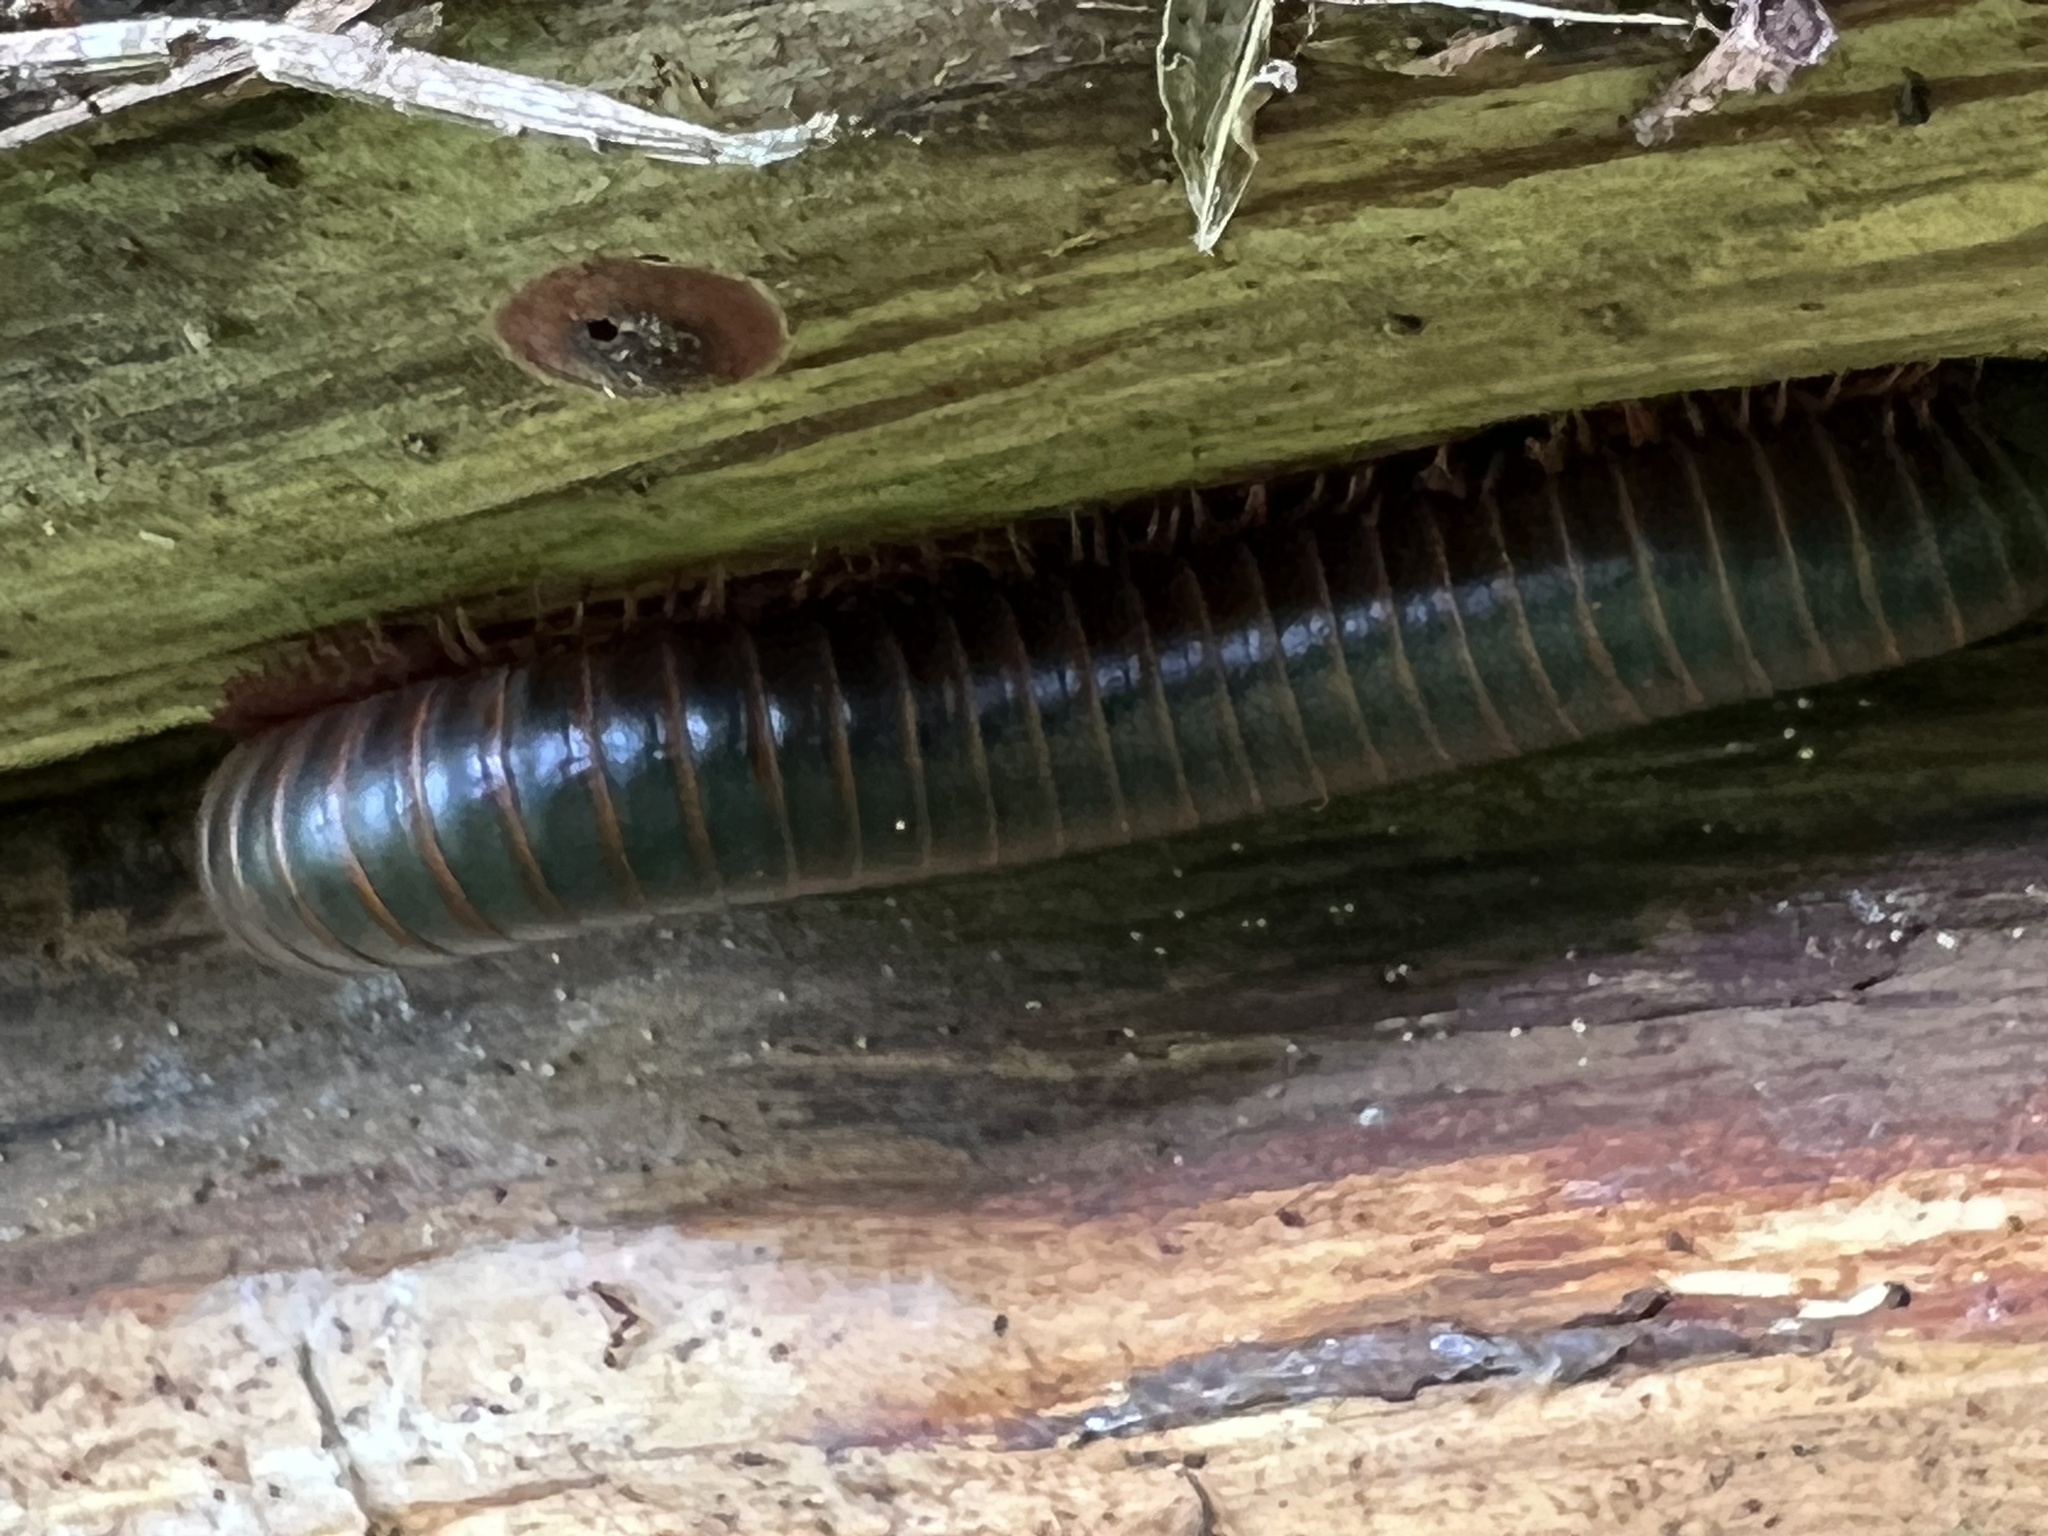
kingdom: Animalia
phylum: Arthropoda
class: Diplopoda
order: Spirobolida
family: Spirobolidae
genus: Narceus
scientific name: Narceus
